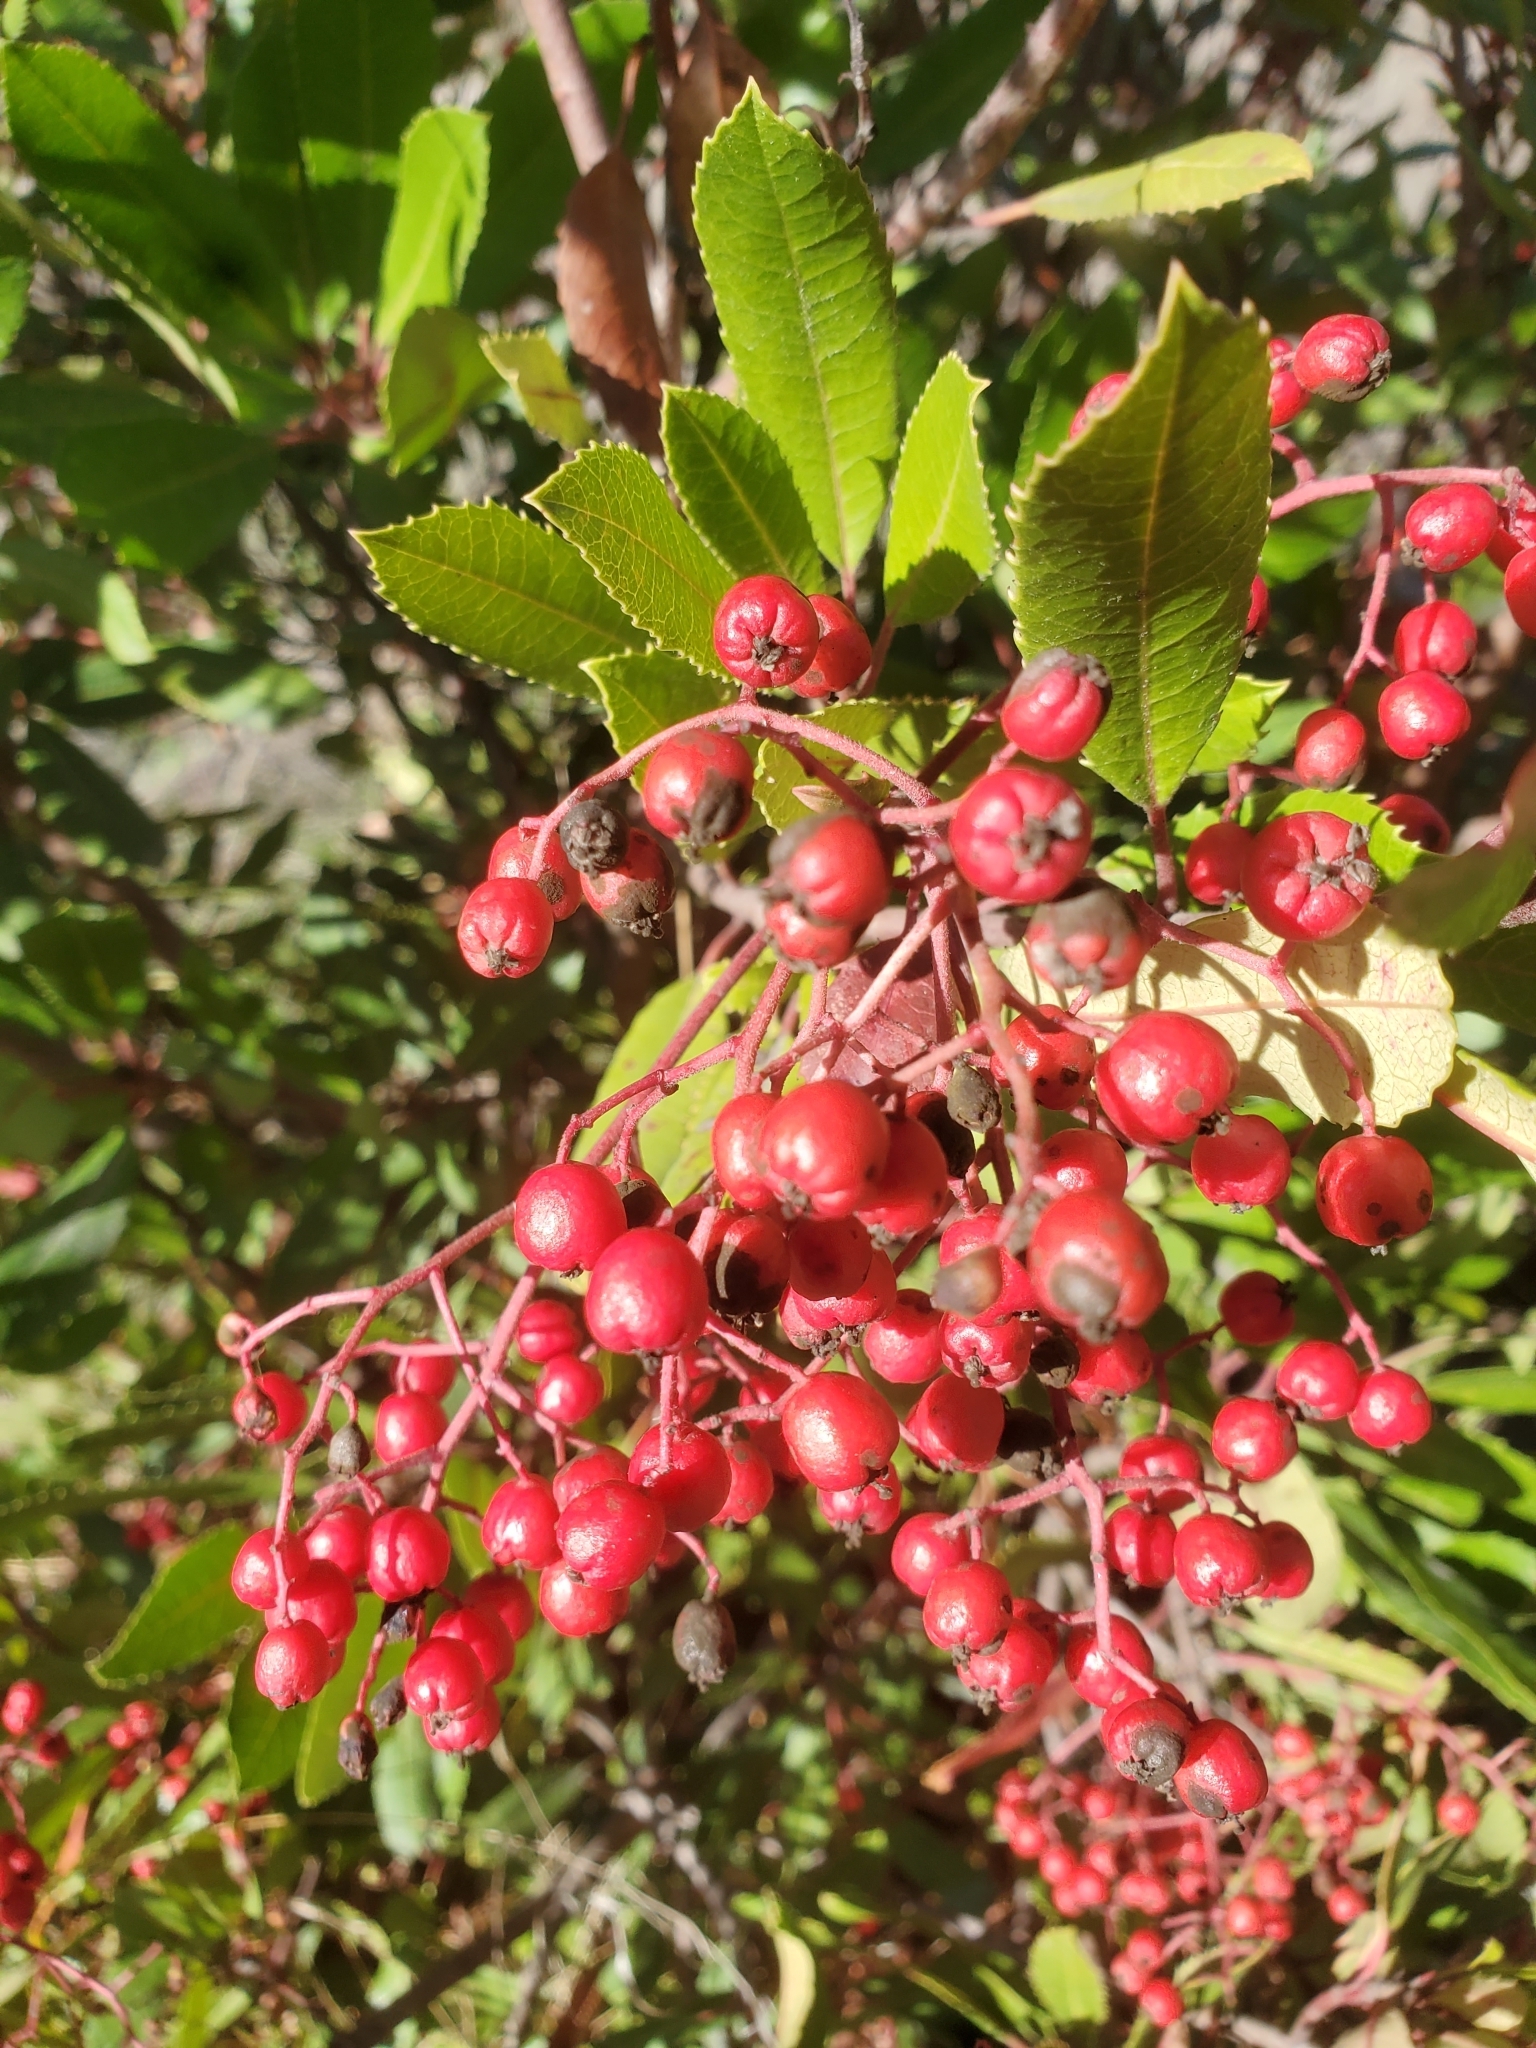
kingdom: Plantae
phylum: Tracheophyta
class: Magnoliopsida
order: Rosales
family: Rosaceae
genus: Heteromeles
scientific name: Heteromeles arbutifolia
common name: California-holly
